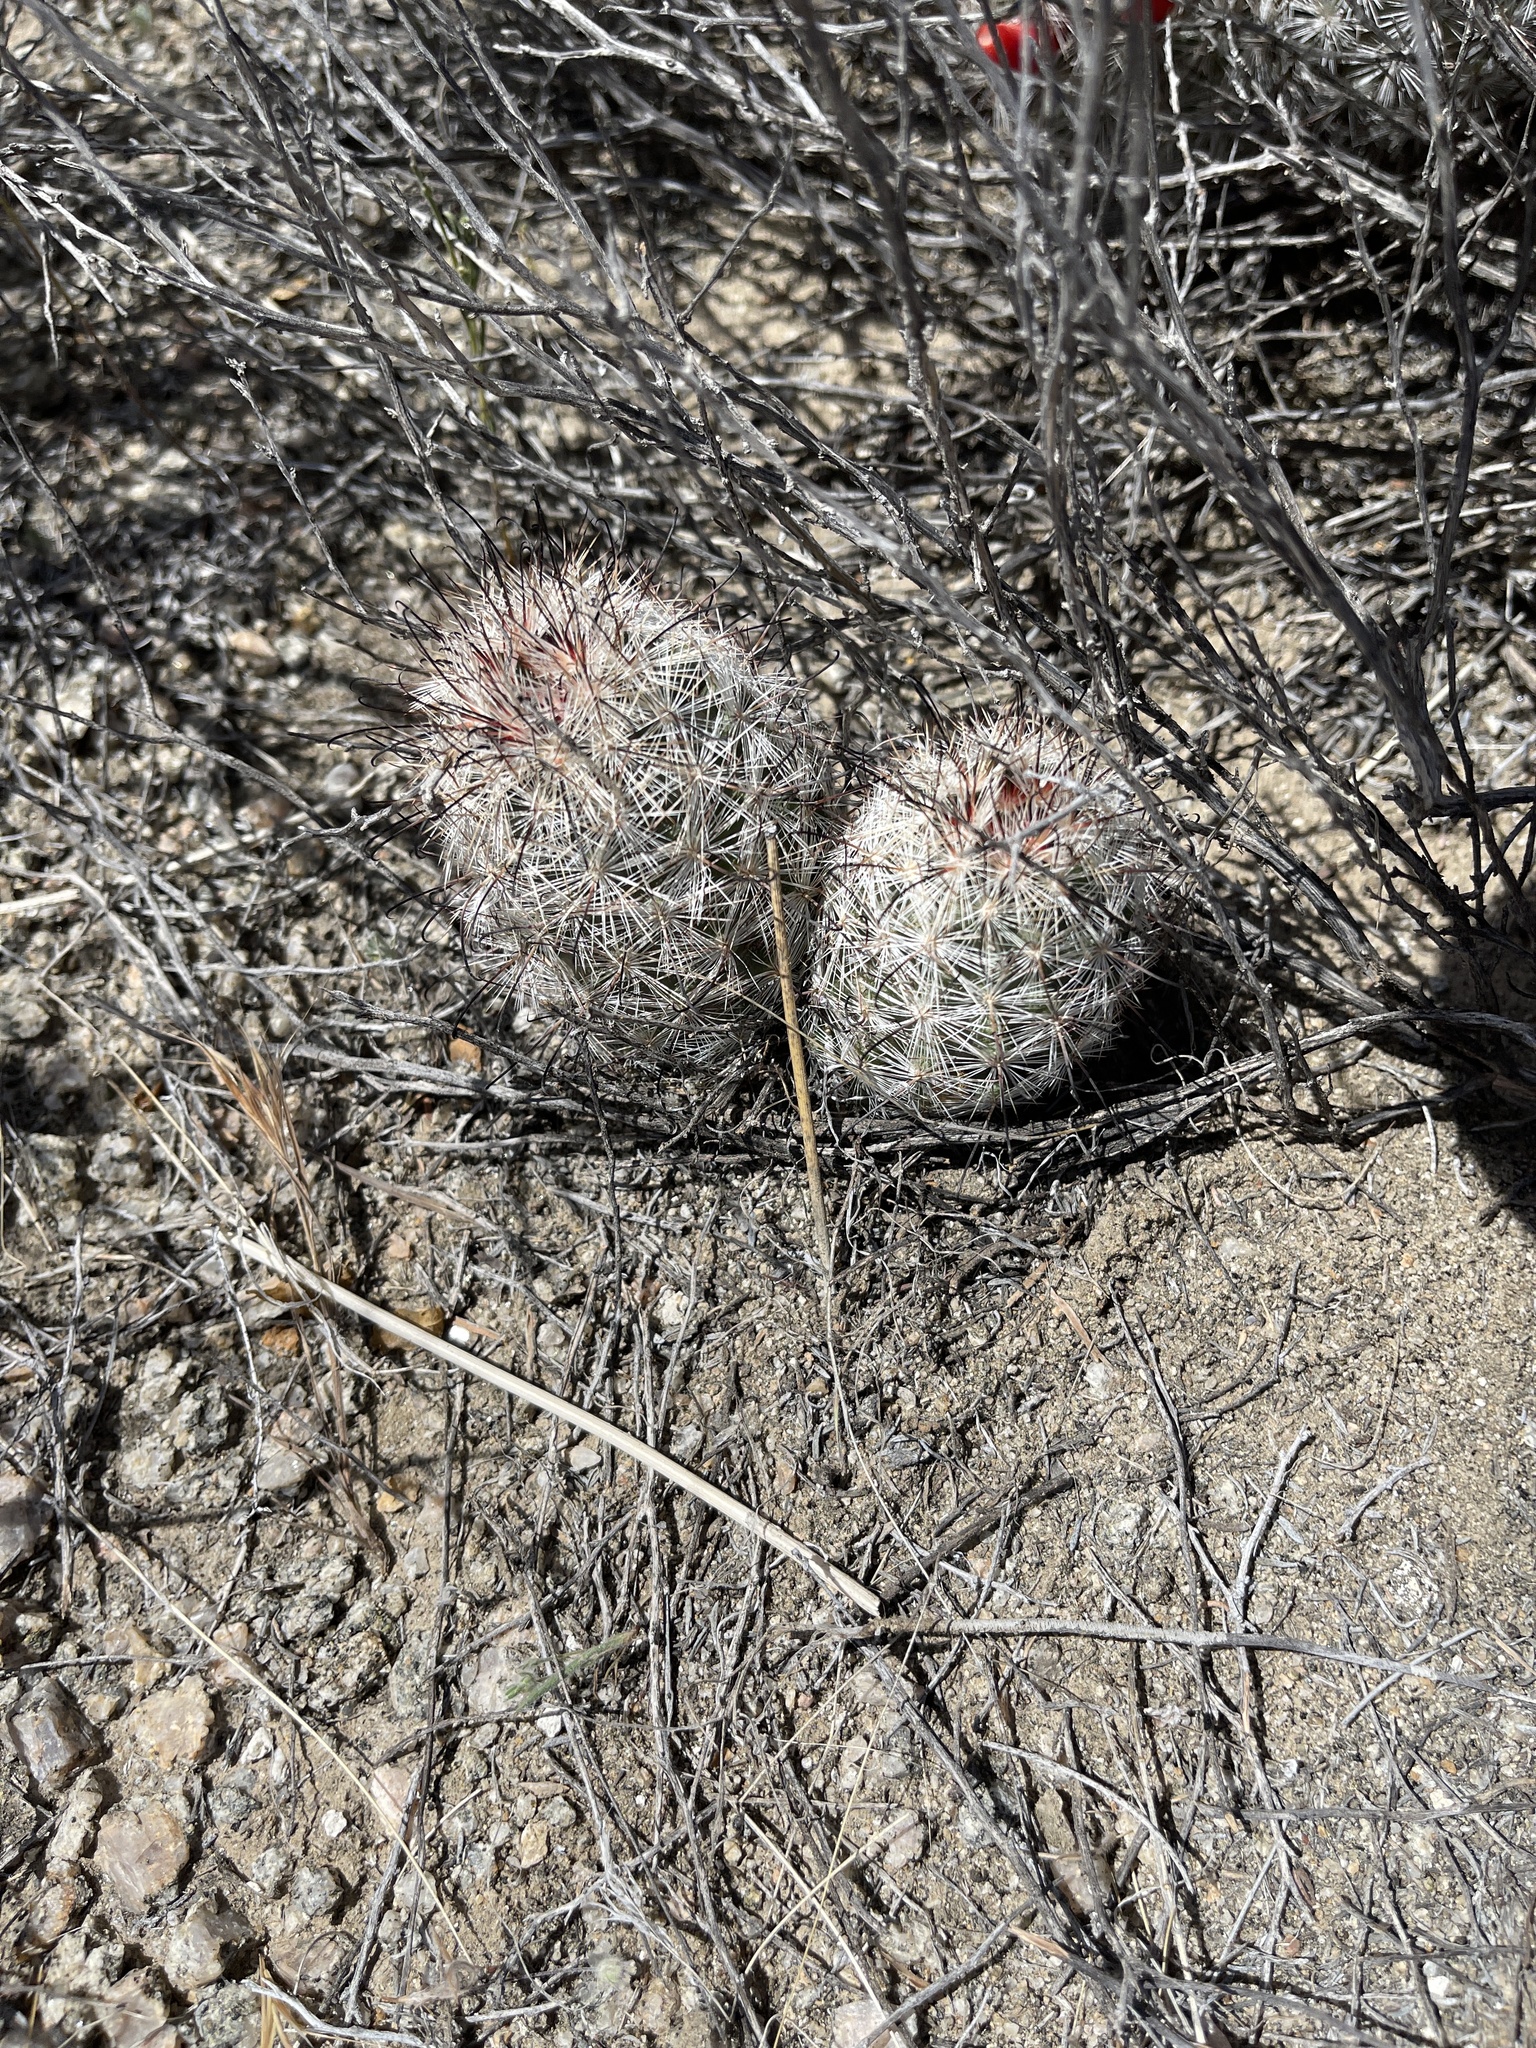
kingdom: Plantae
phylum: Tracheophyta
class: Magnoliopsida
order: Caryophyllales
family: Cactaceae
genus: Cochemiea
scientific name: Cochemiea grahamii
